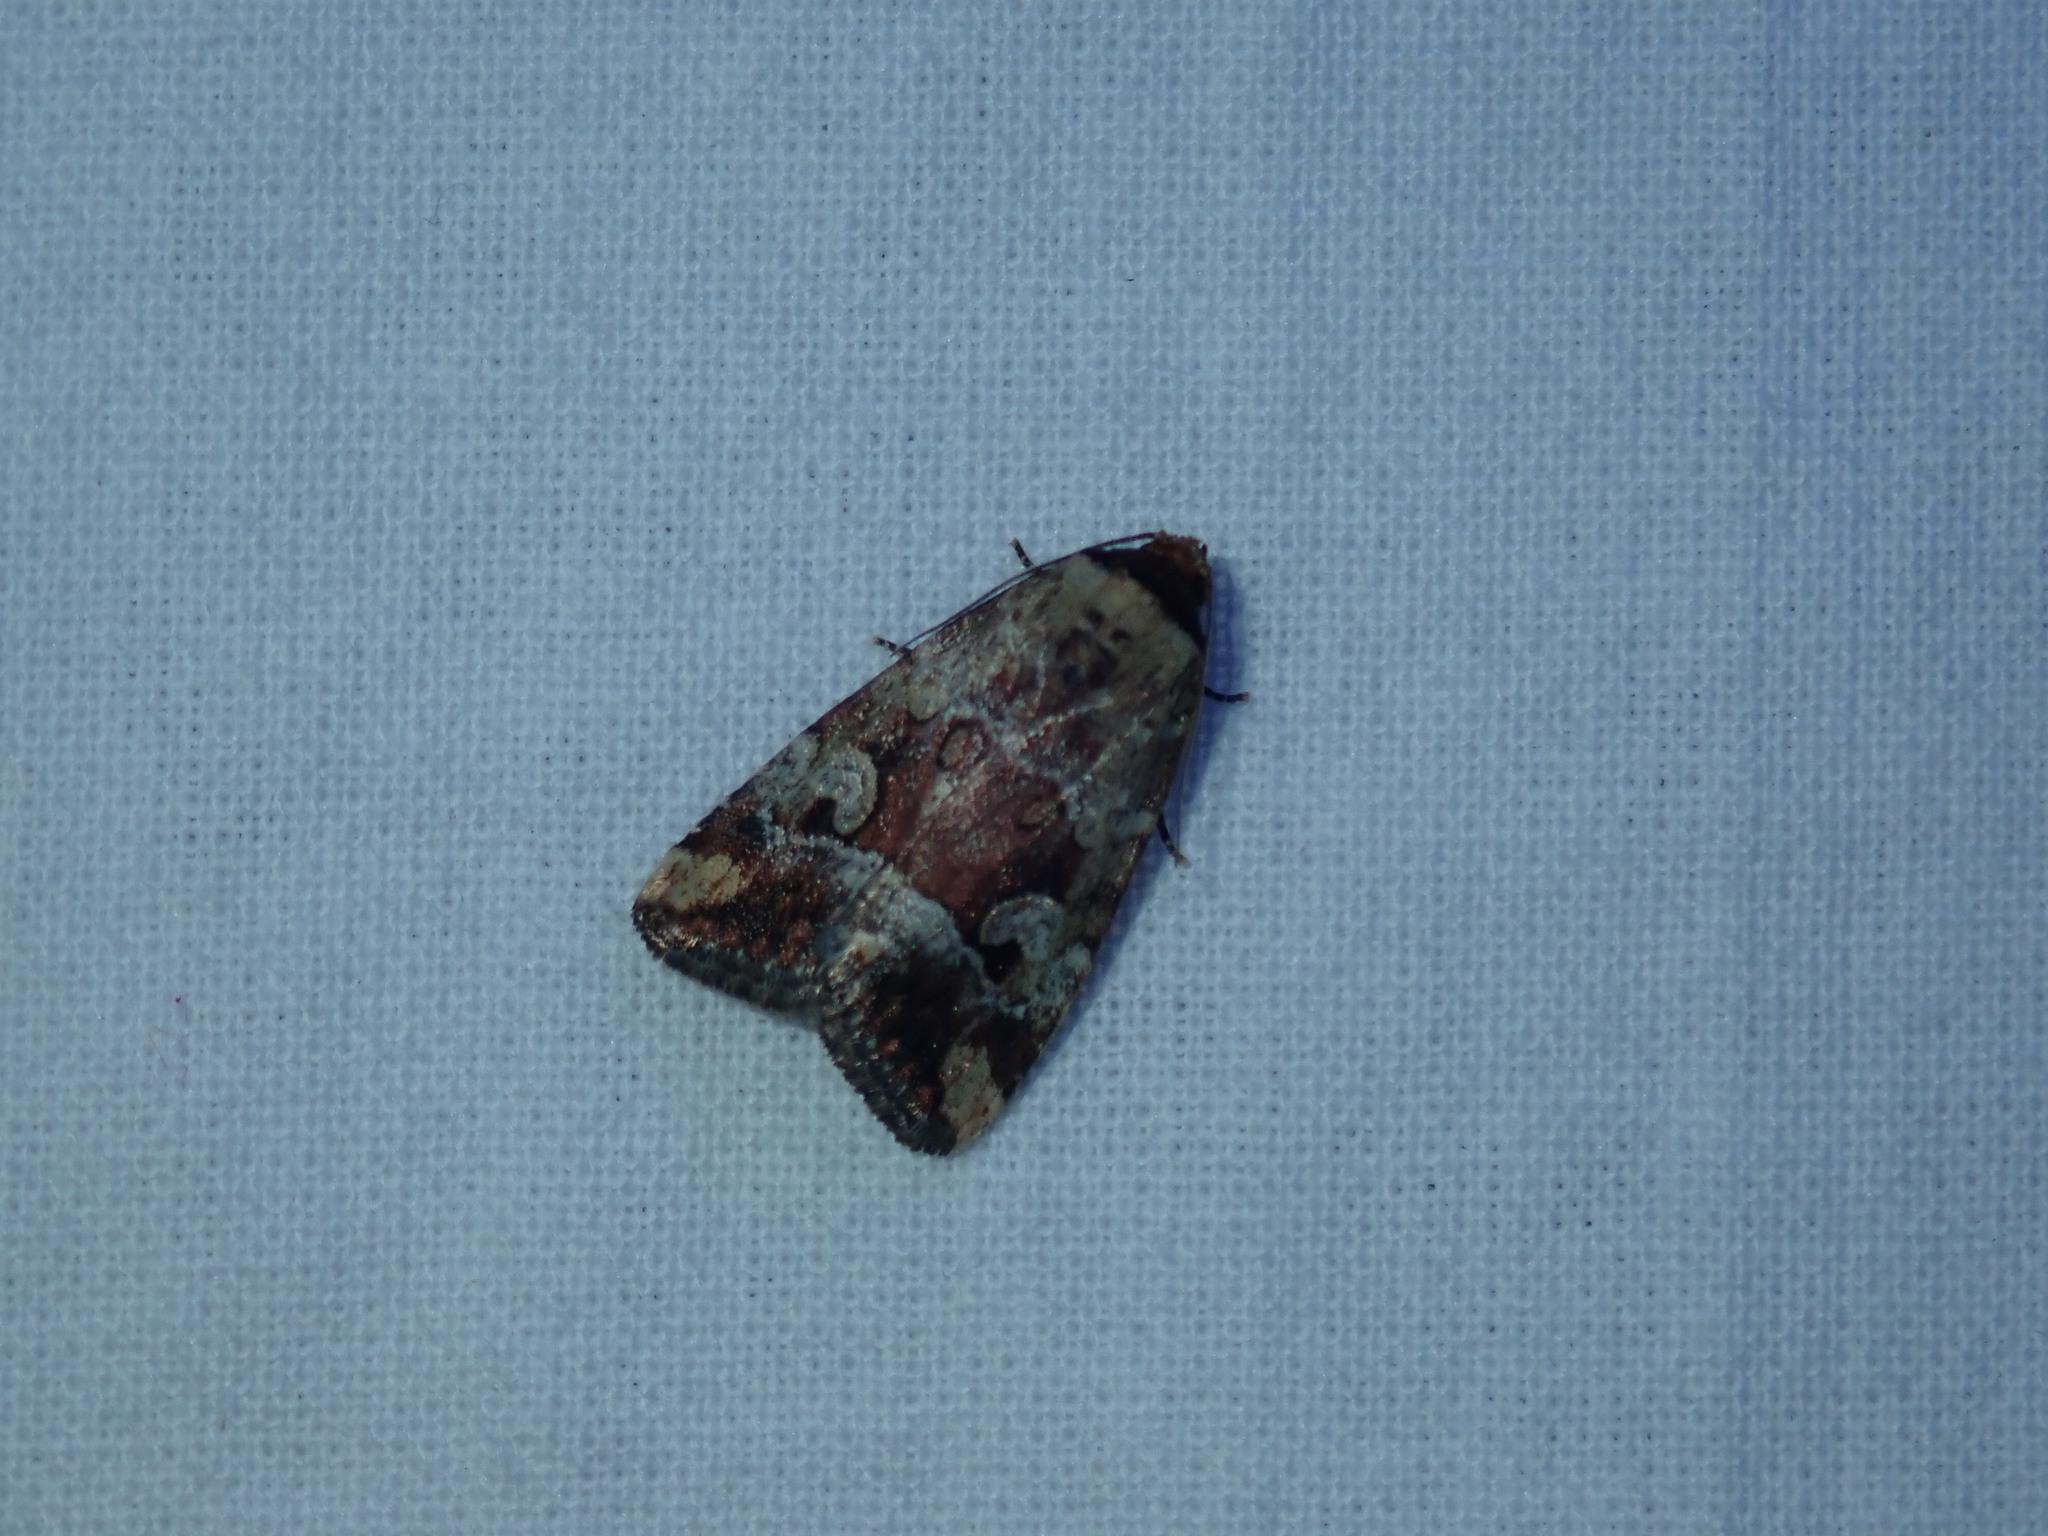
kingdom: Animalia
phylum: Arthropoda
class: Insecta
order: Lepidoptera
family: Noctuidae
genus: Elaphria
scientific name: Elaphria alapallida
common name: Pale-winged midget
